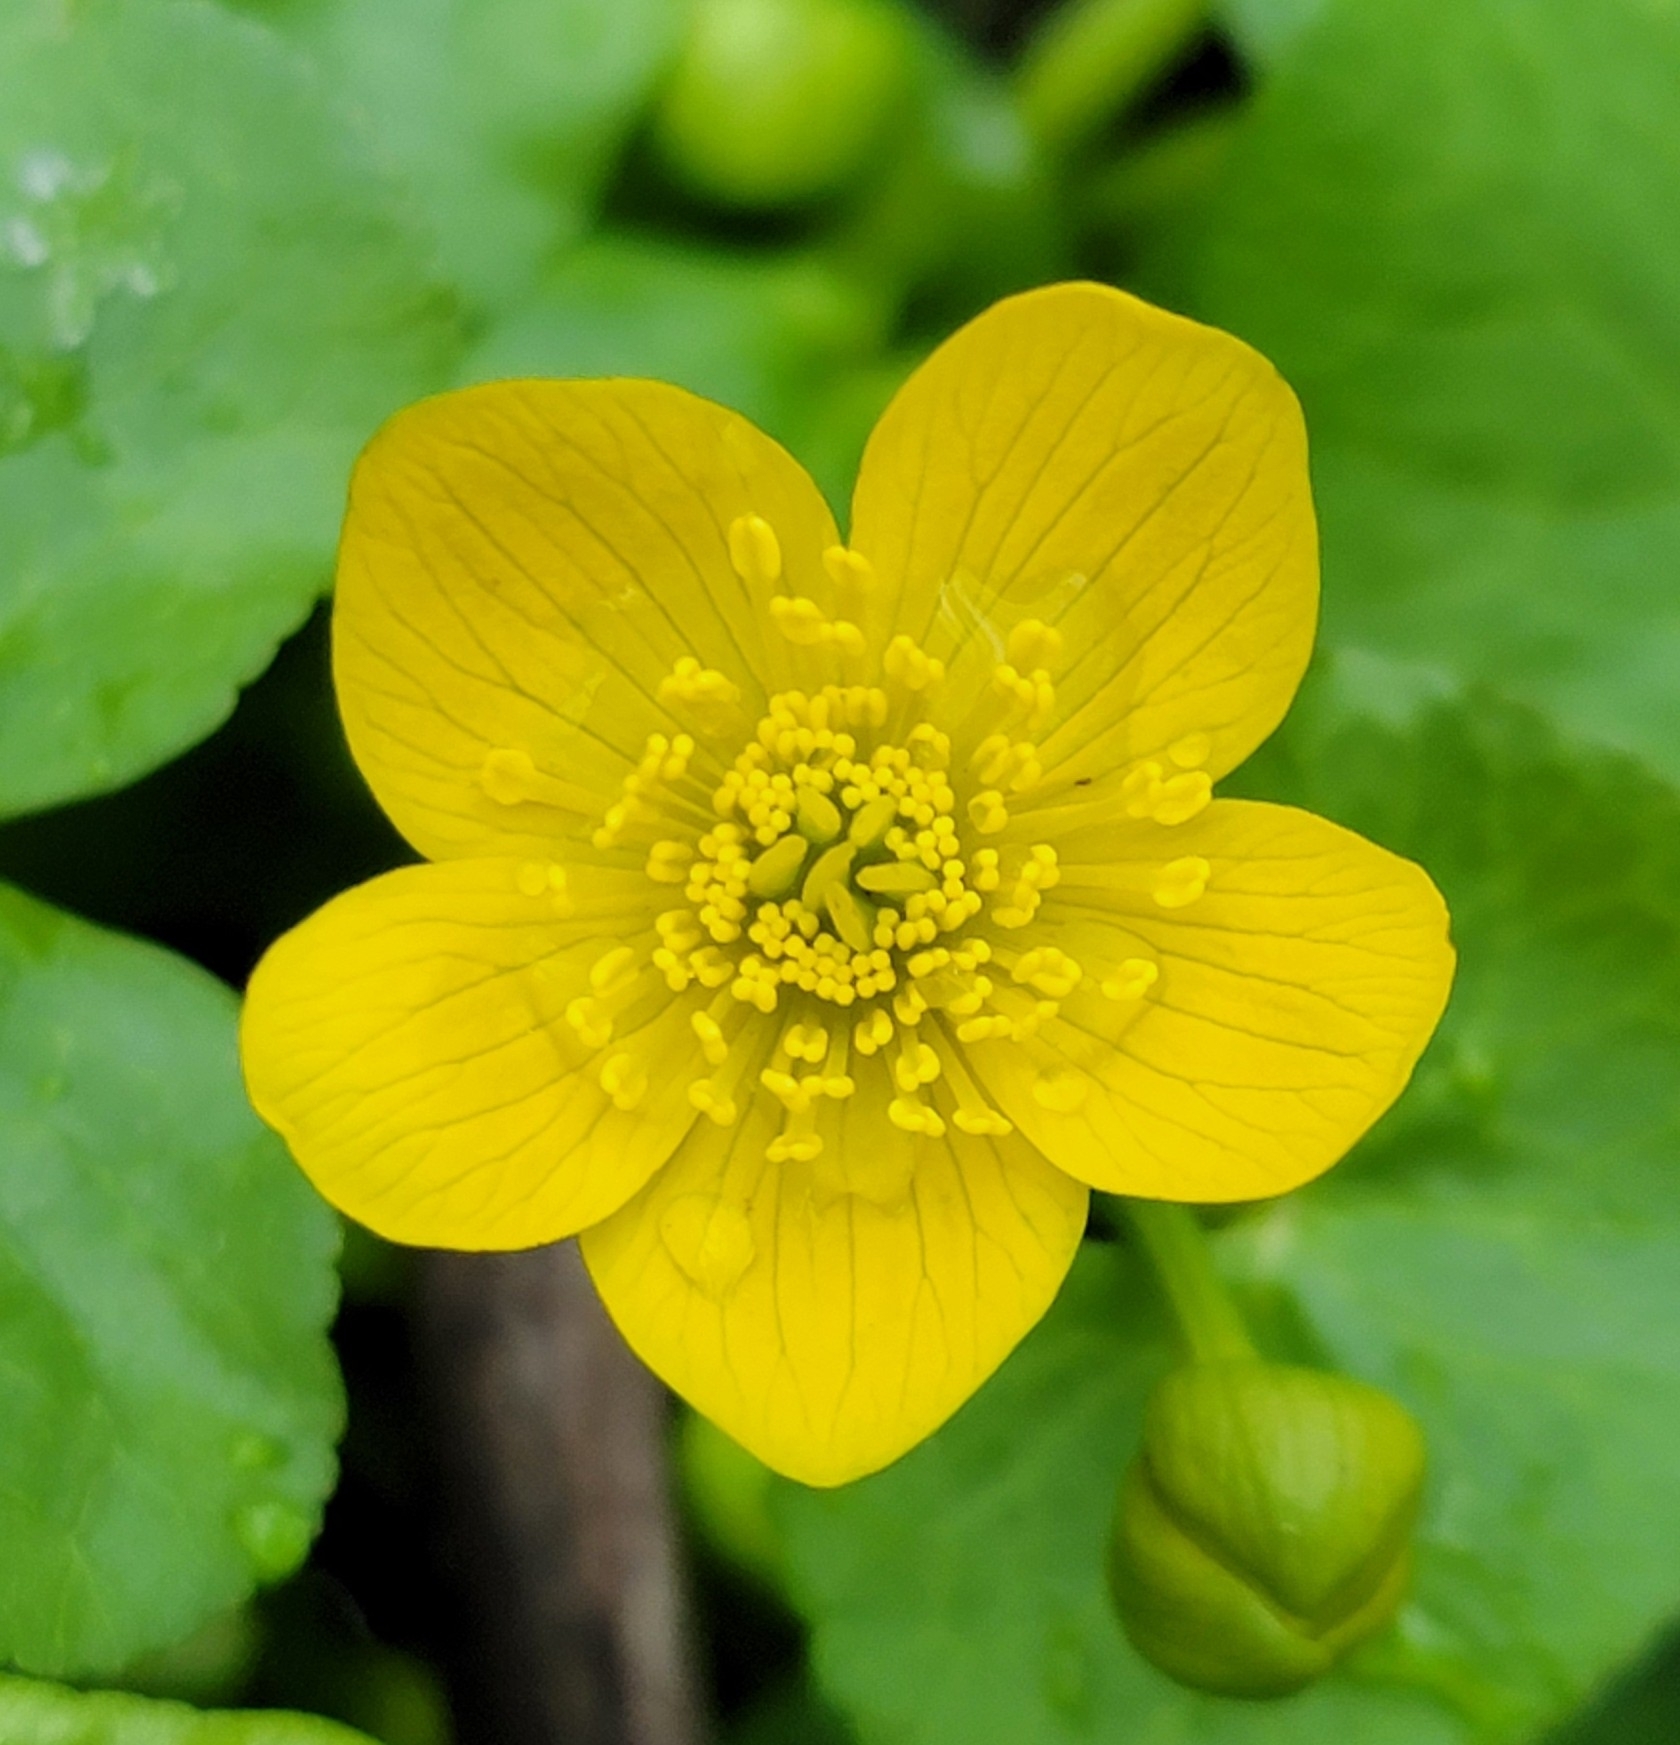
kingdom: Plantae
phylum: Tracheophyta
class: Magnoliopsida
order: Ranunculales
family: Ranunculaceae
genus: Caltha
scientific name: Caltha palustris
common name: Marsh marigold
